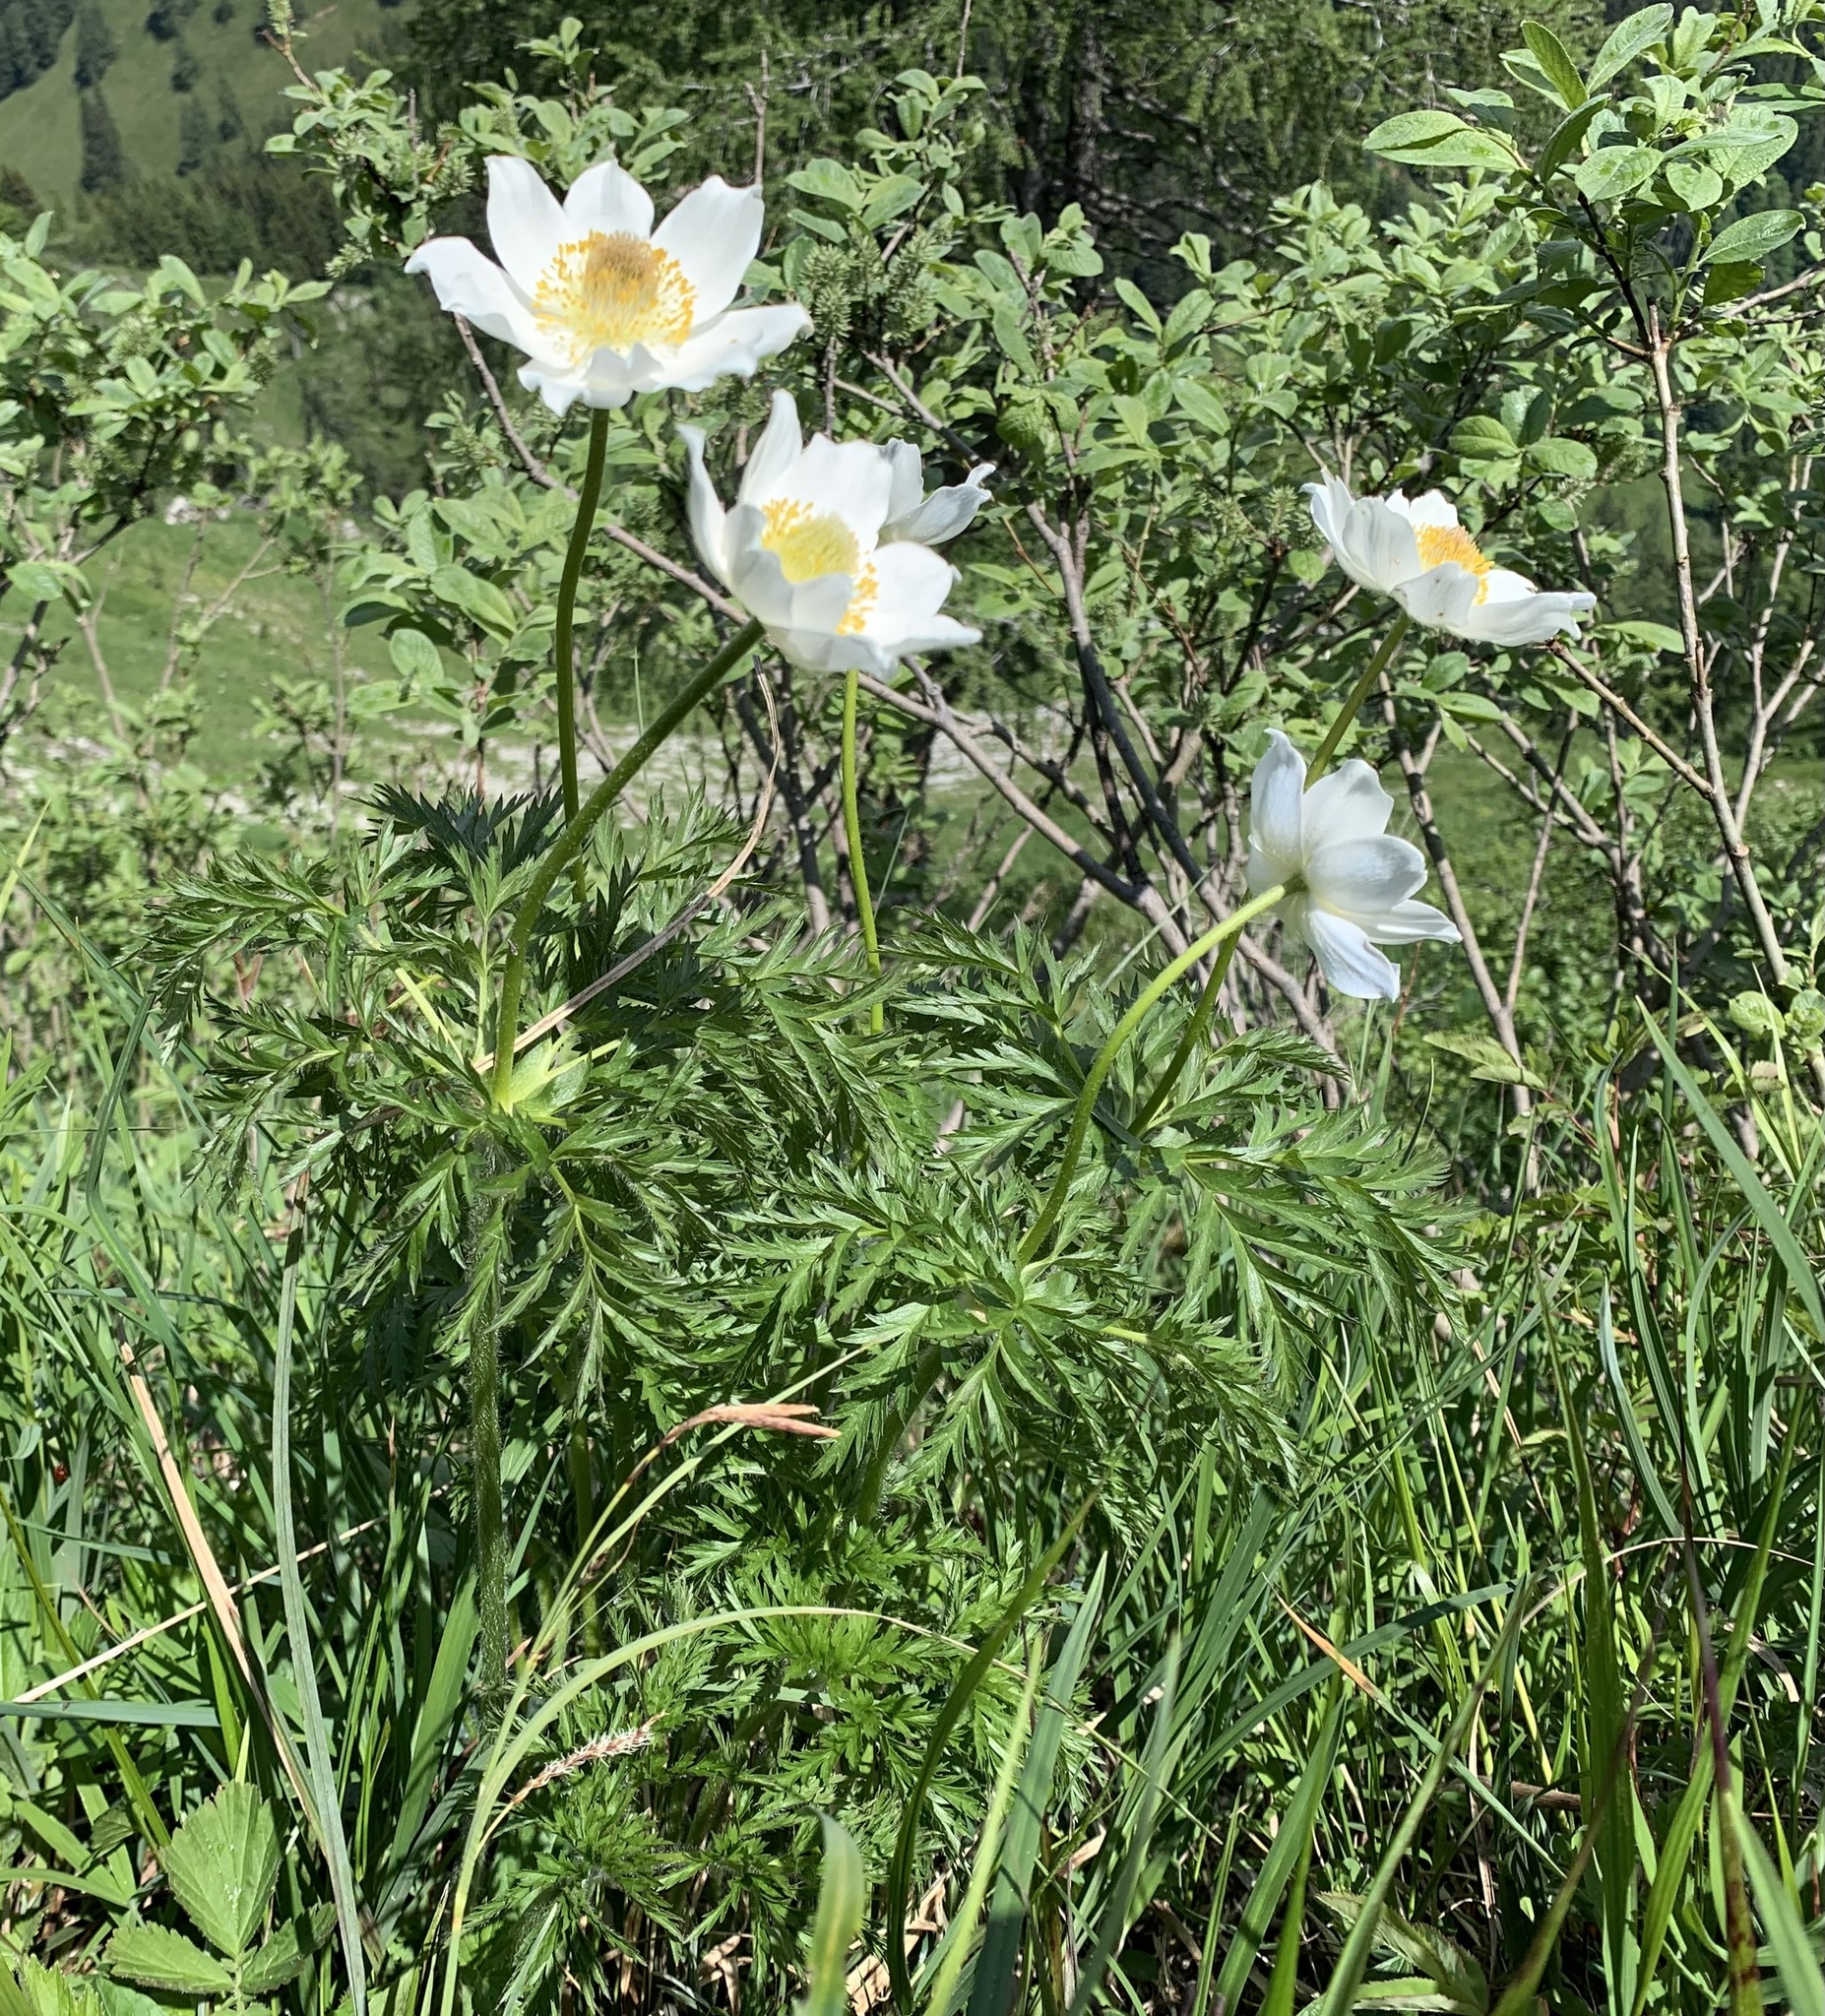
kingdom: Plantae
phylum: Tracheophyta
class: Magnoliopsida
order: Ranunculales
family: Ranunculaceae
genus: Pulsatilla
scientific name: Pulsatilla alpina
